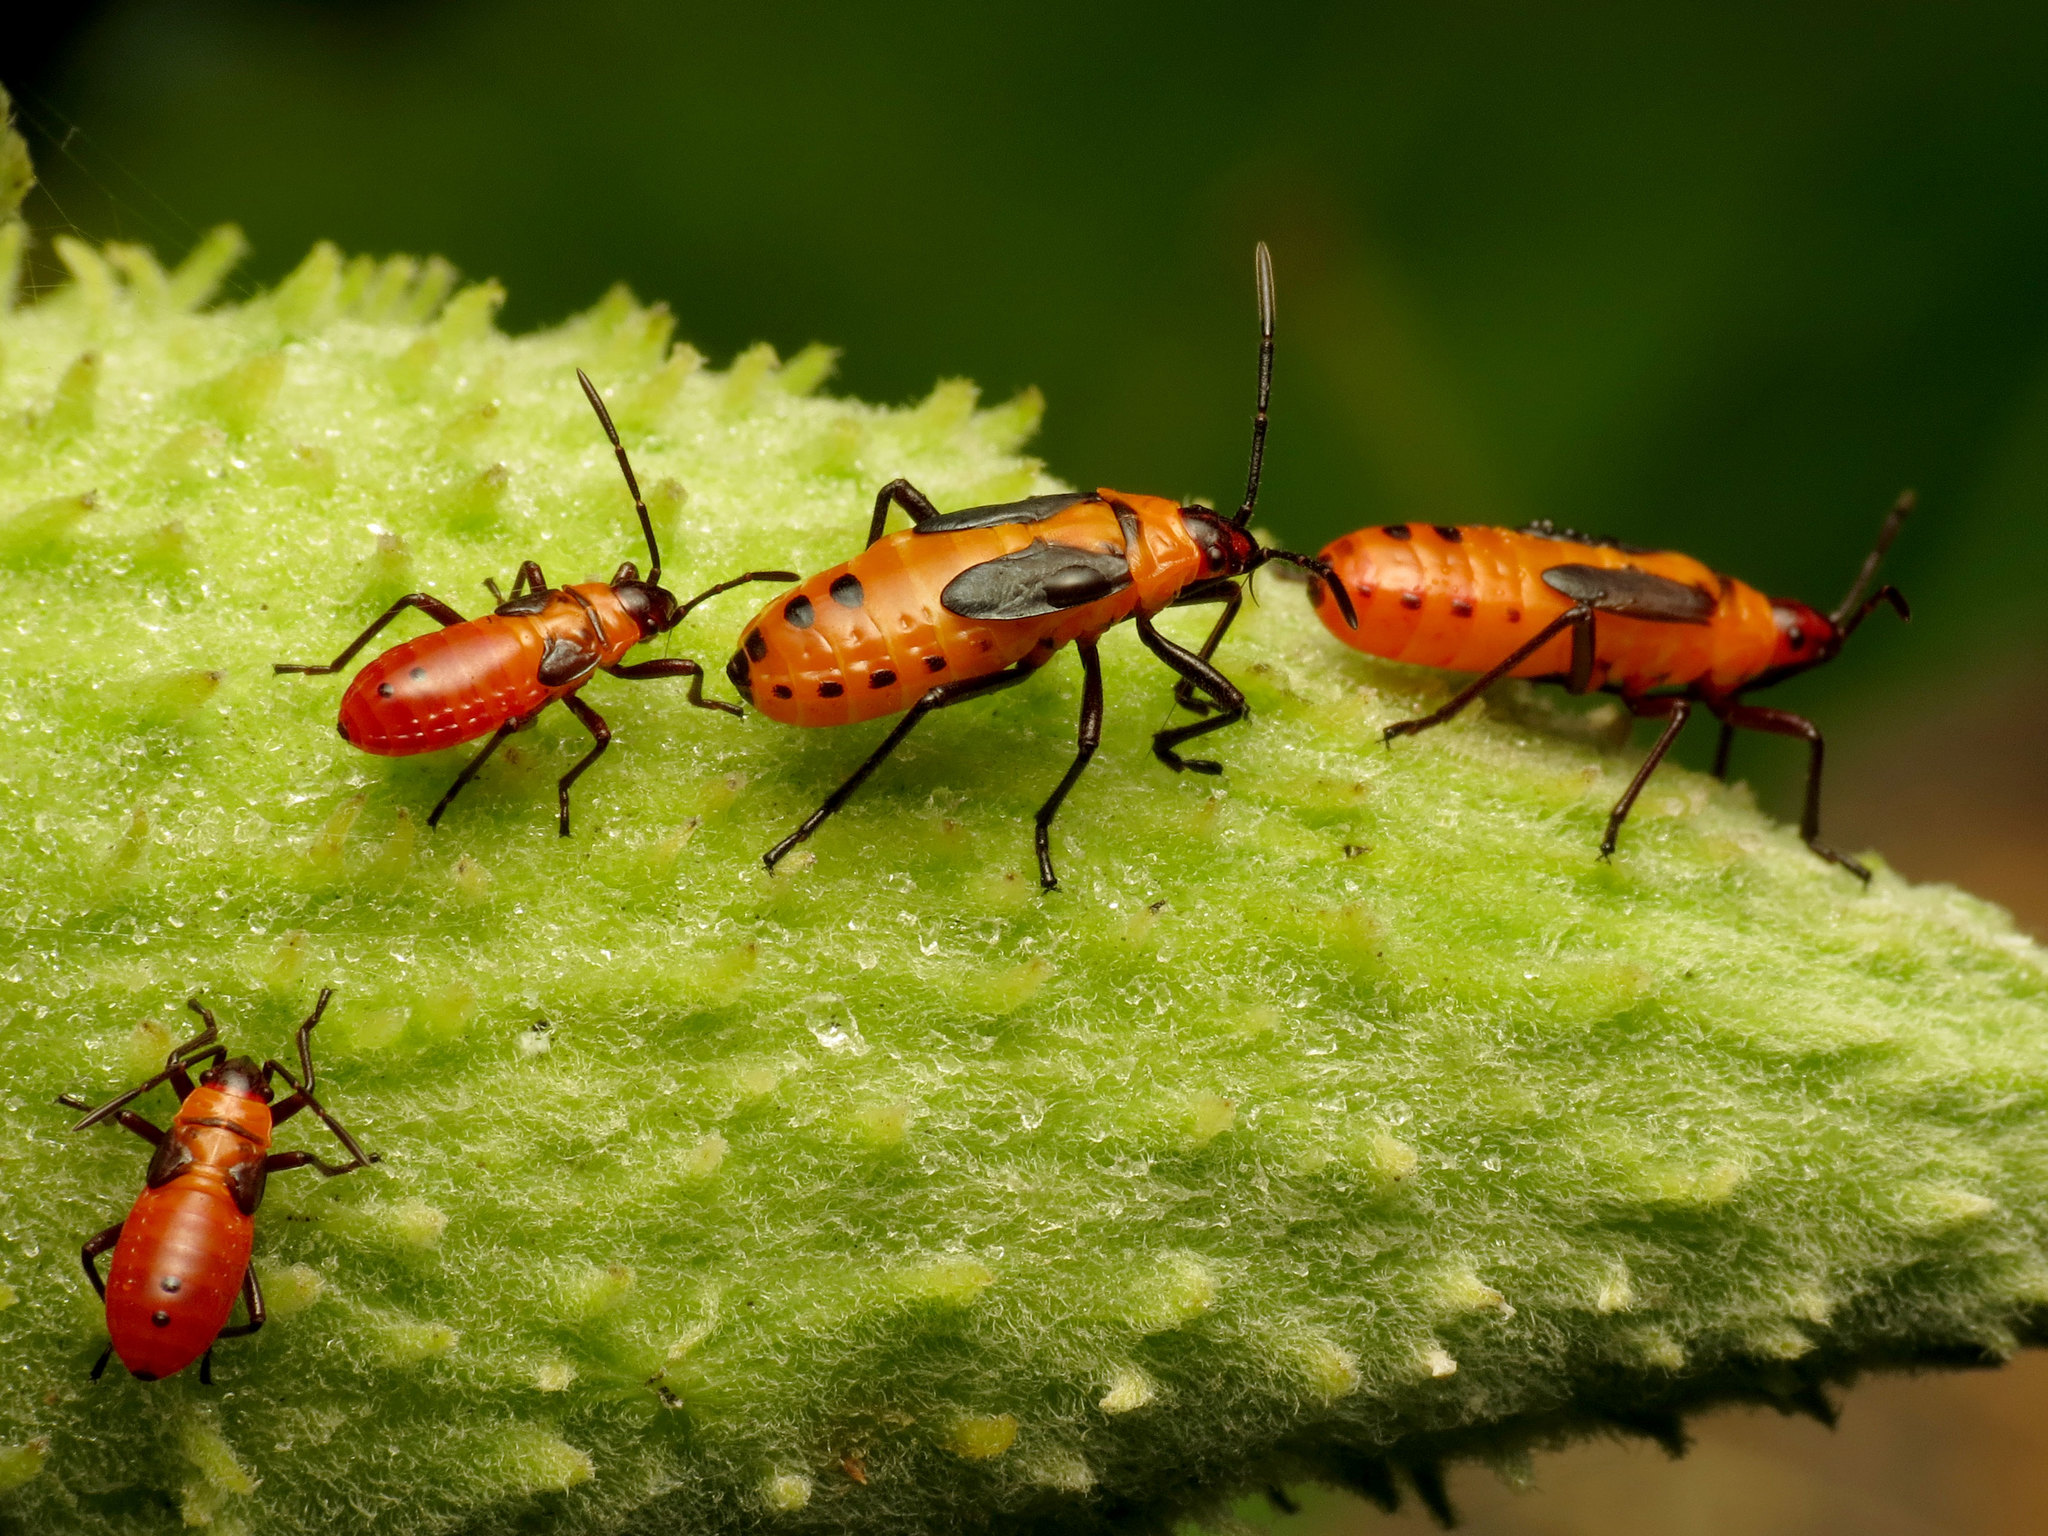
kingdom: Animalia
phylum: Arthropoda
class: Insecta
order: Hemiptera
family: Lygaeidae
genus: Oncopeltus
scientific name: Oncopeltus fasciatus
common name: Large milkweed bug
